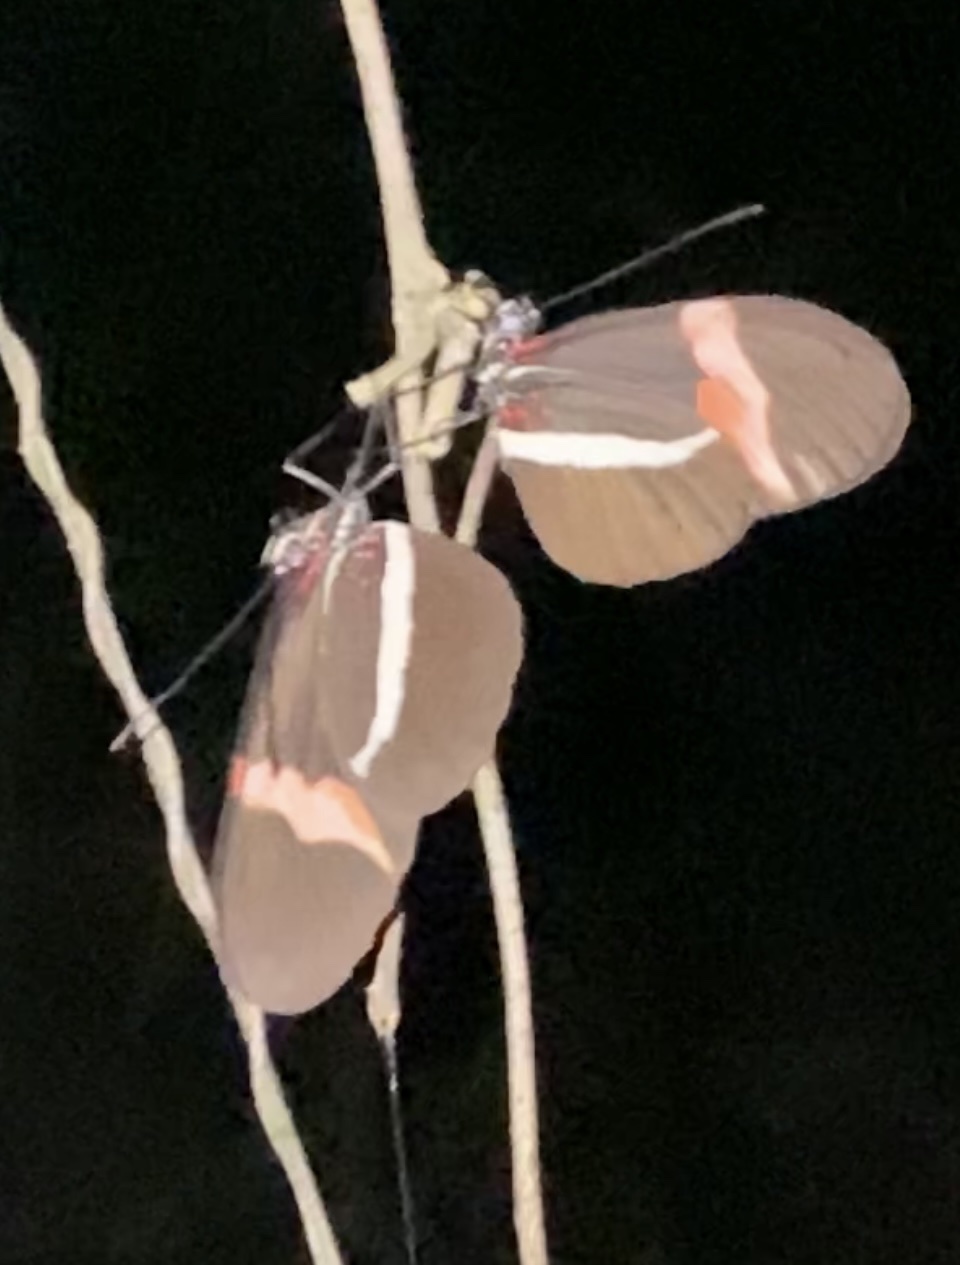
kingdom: Animalia
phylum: Arthropoda
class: Insecta
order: Lepidoptera
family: Nymphalidae
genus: Tirumala
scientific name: Tirumala petiverana
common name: Blue monarch
